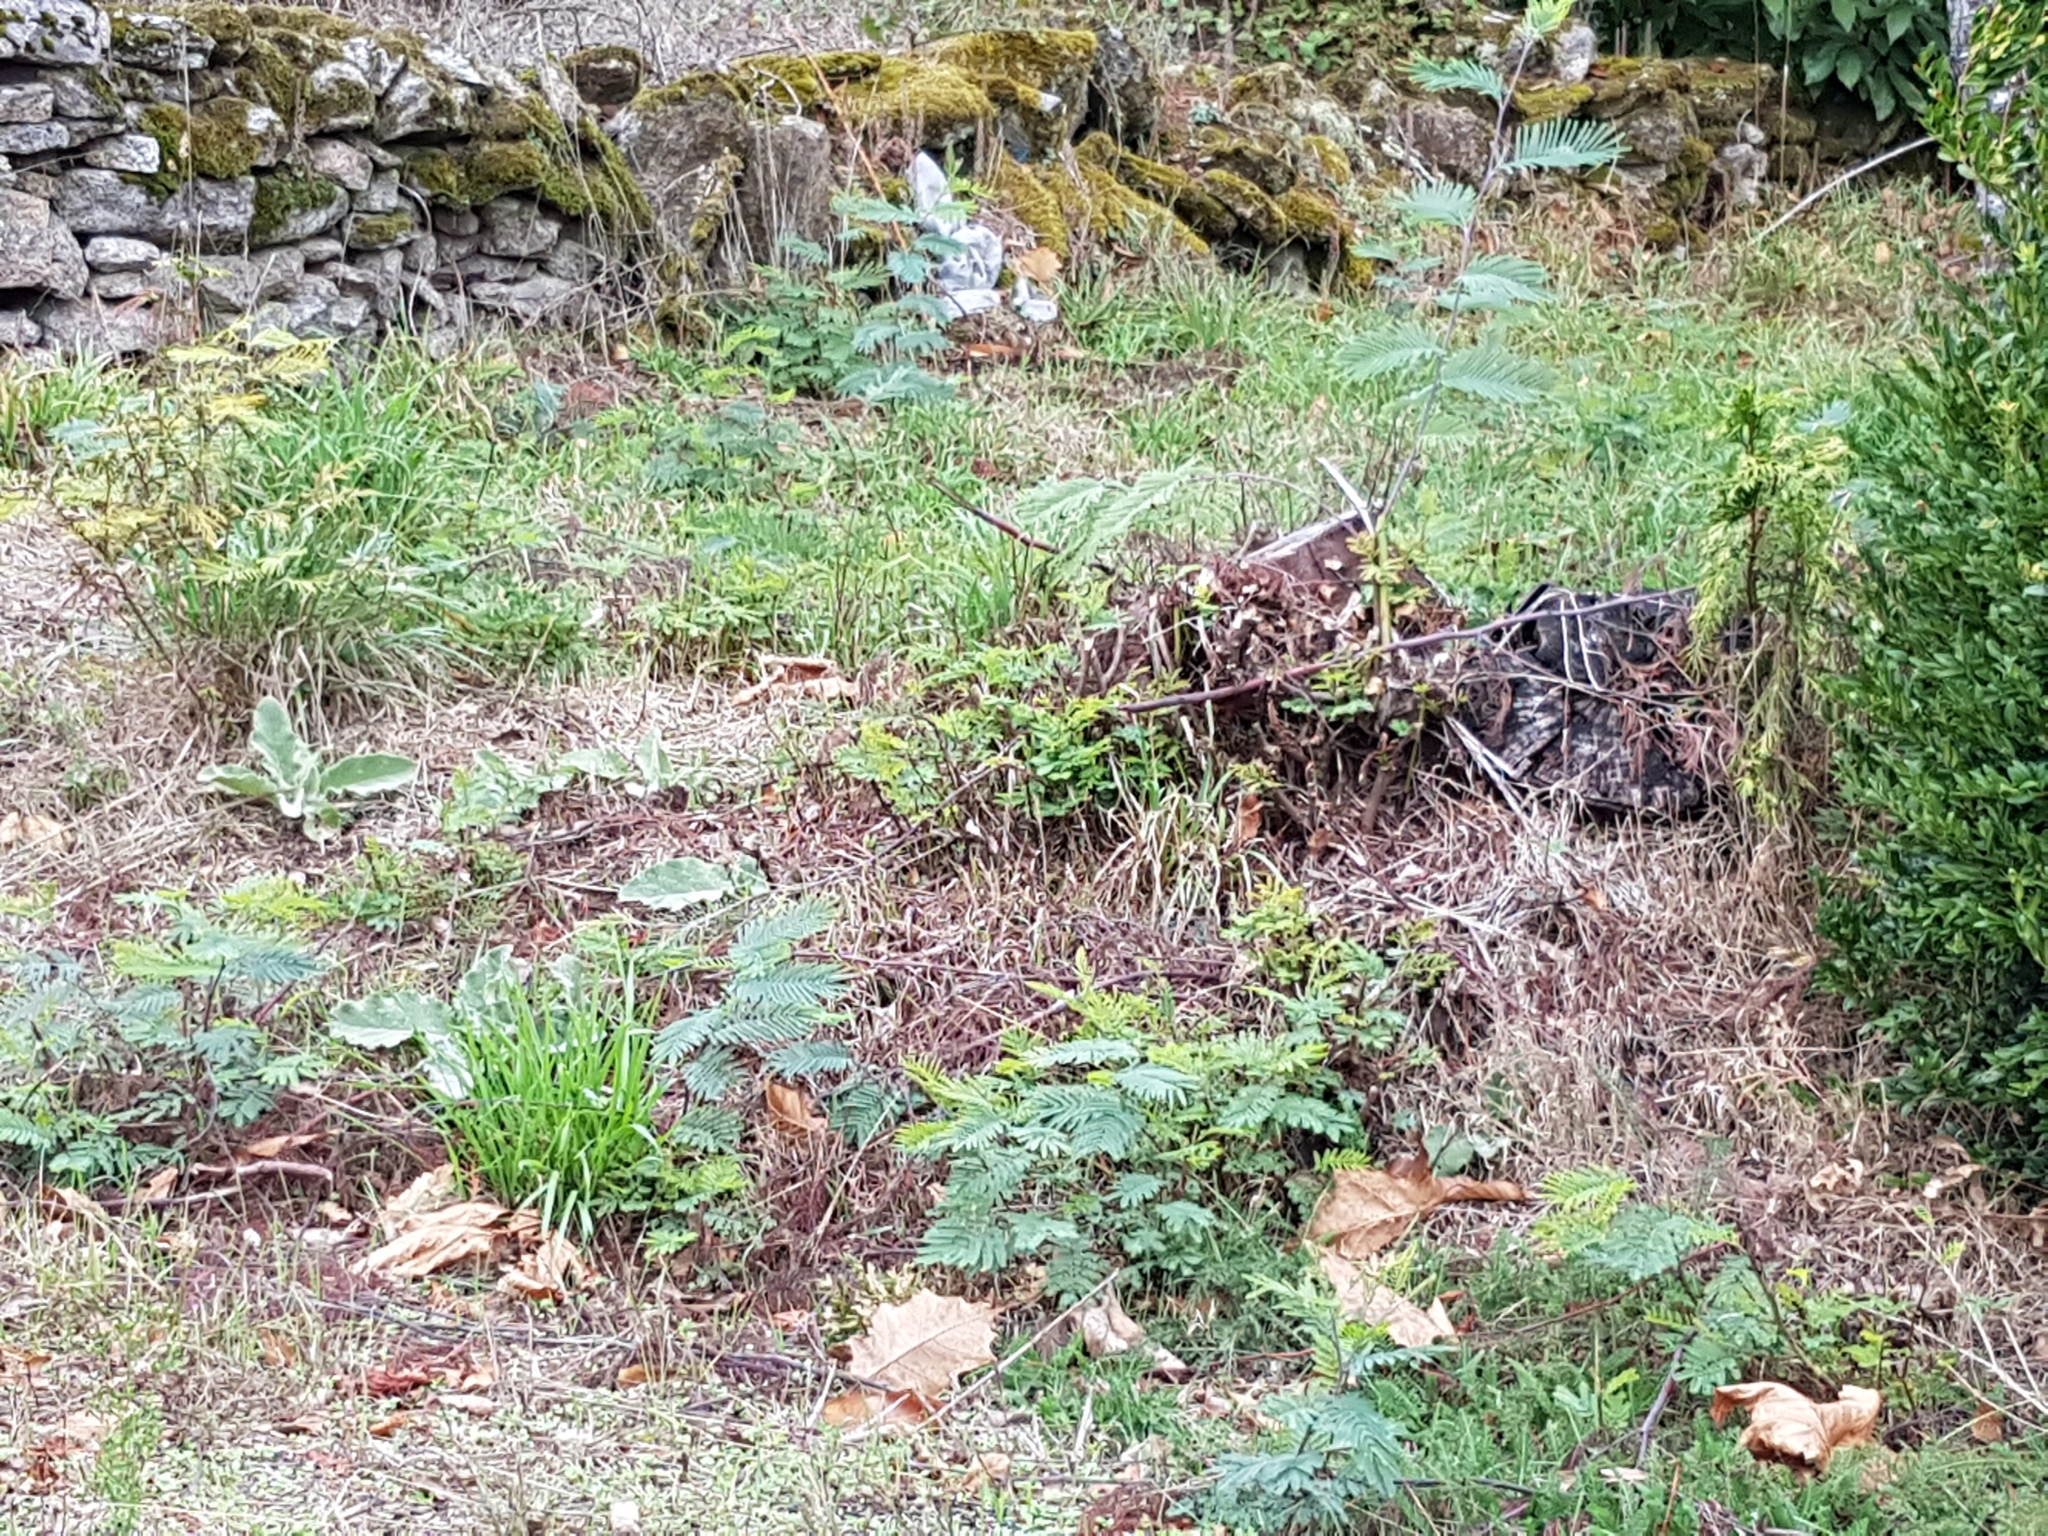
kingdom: Plantae
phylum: Tracheophyta
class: Magnoliopsida
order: Fabales
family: Fabaceae
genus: Acacia
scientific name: Acacia dealbata
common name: Silver wattle
